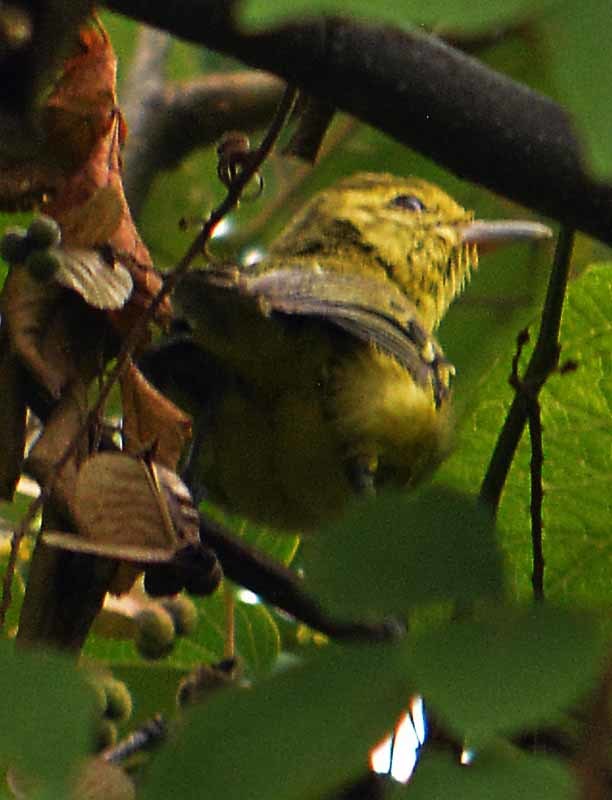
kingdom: Animalia
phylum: Chordata
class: Aves
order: Passeriformes
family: Vireonidae
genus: Vireo
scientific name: Vireo hypochryseus
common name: Golden vireo
